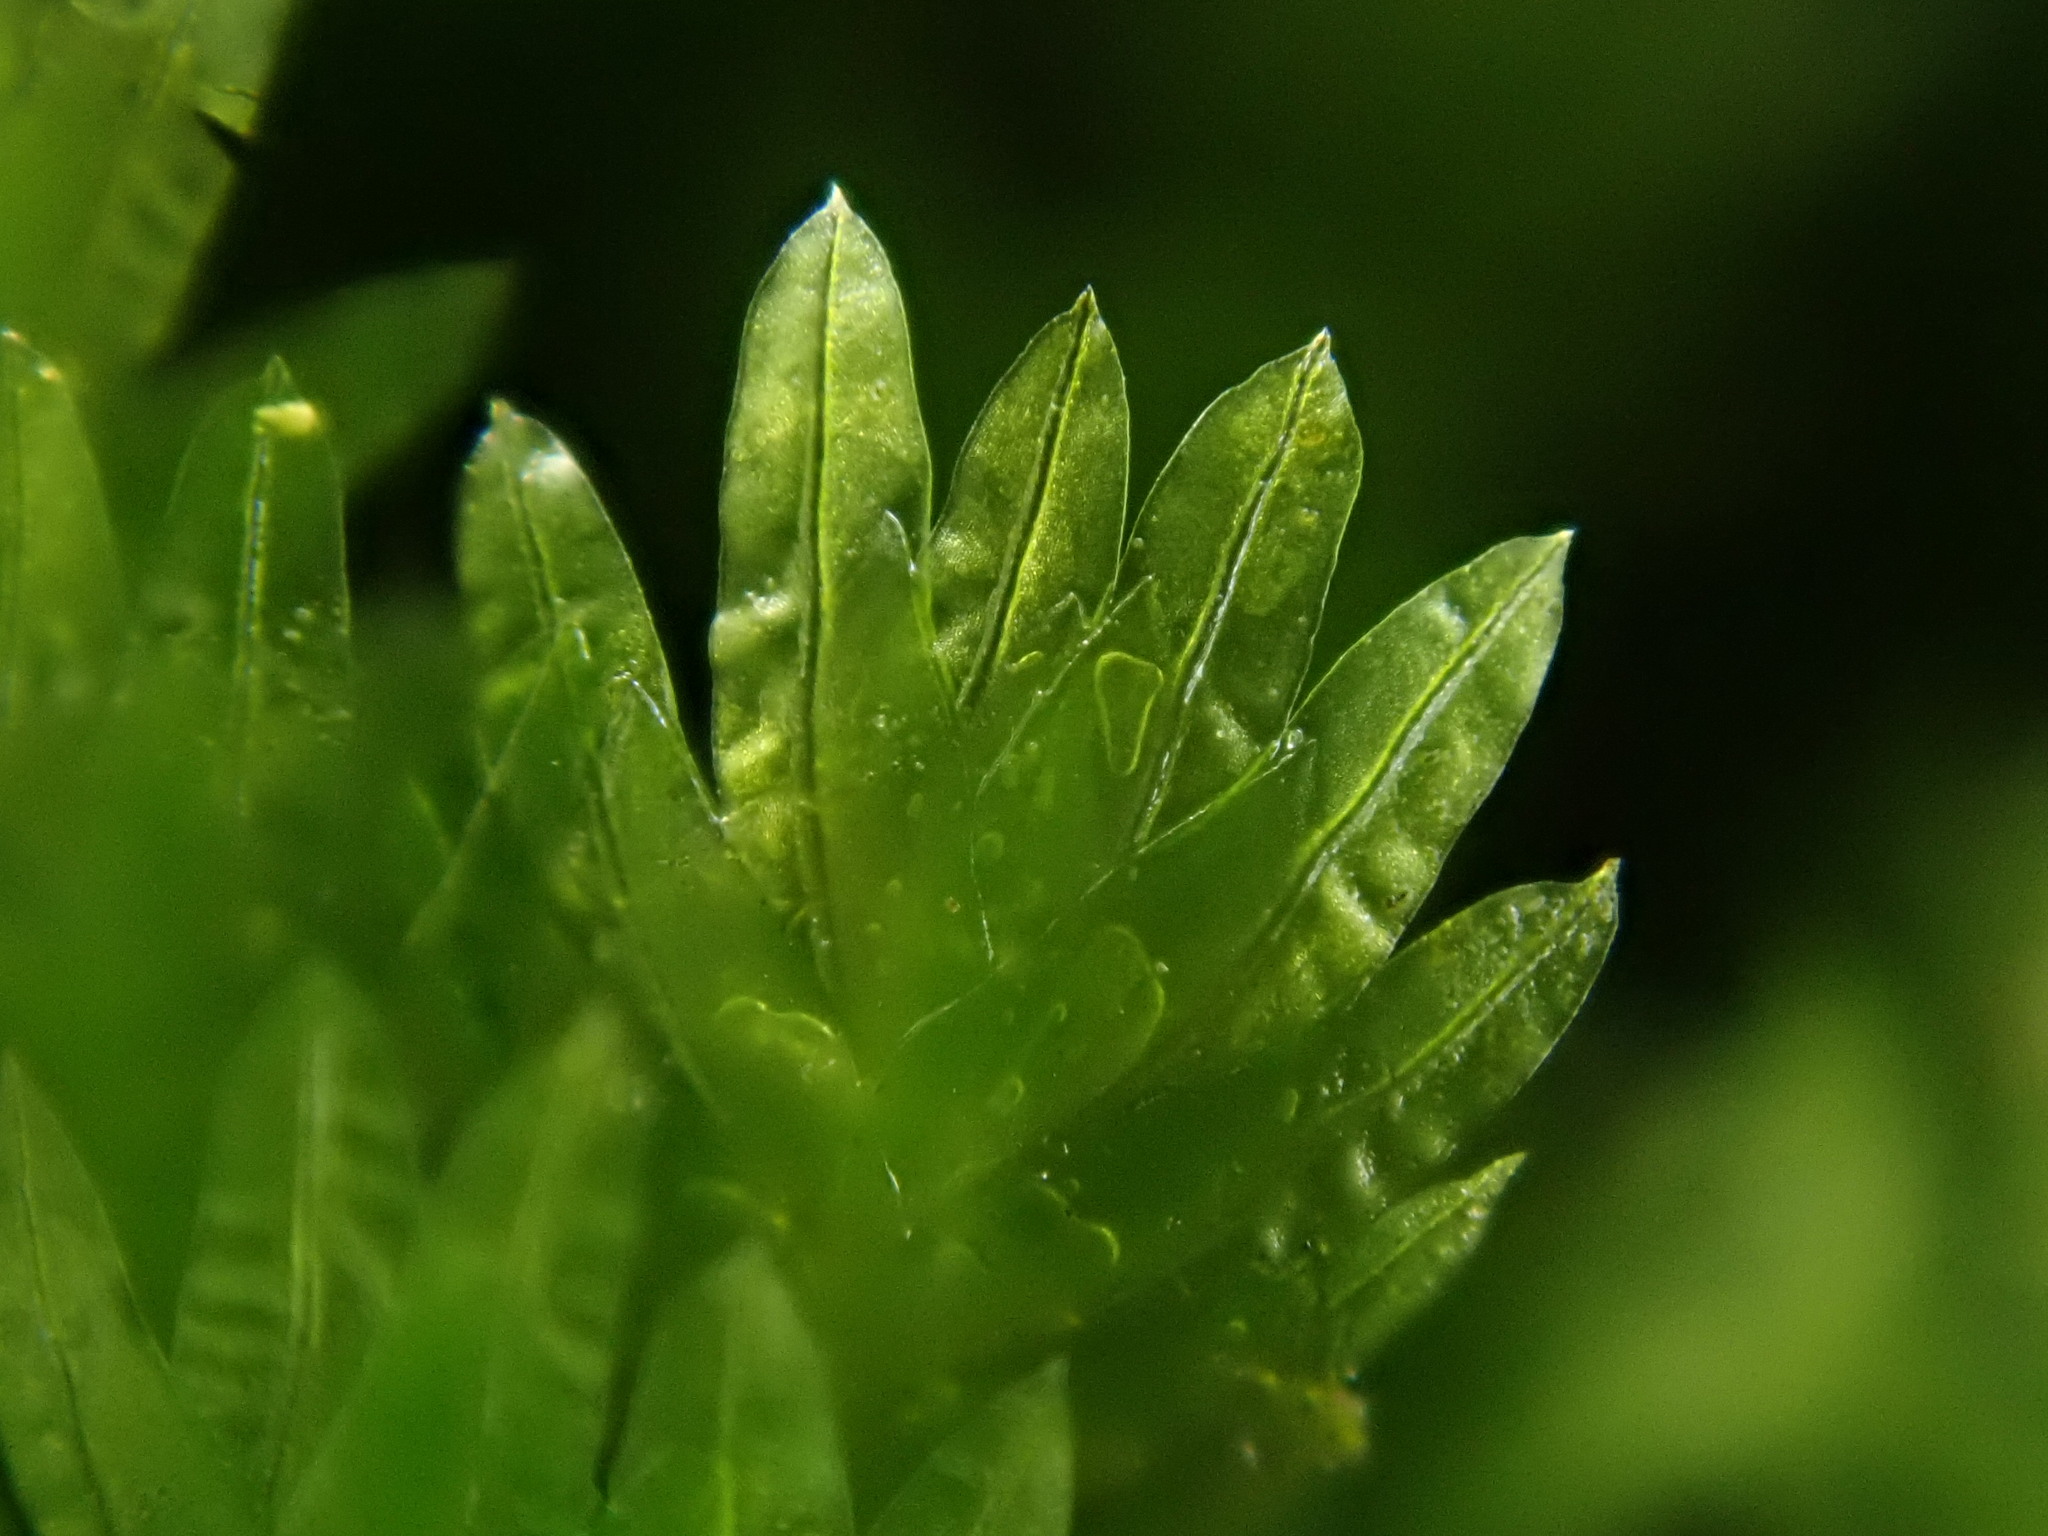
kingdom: Plantae
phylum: Bryophyta
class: Bryopsida
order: Dicranales
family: Fissidentaceae
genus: Fissidens
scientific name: Fissidens taxifolius
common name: Yew-leaved pocket moss
